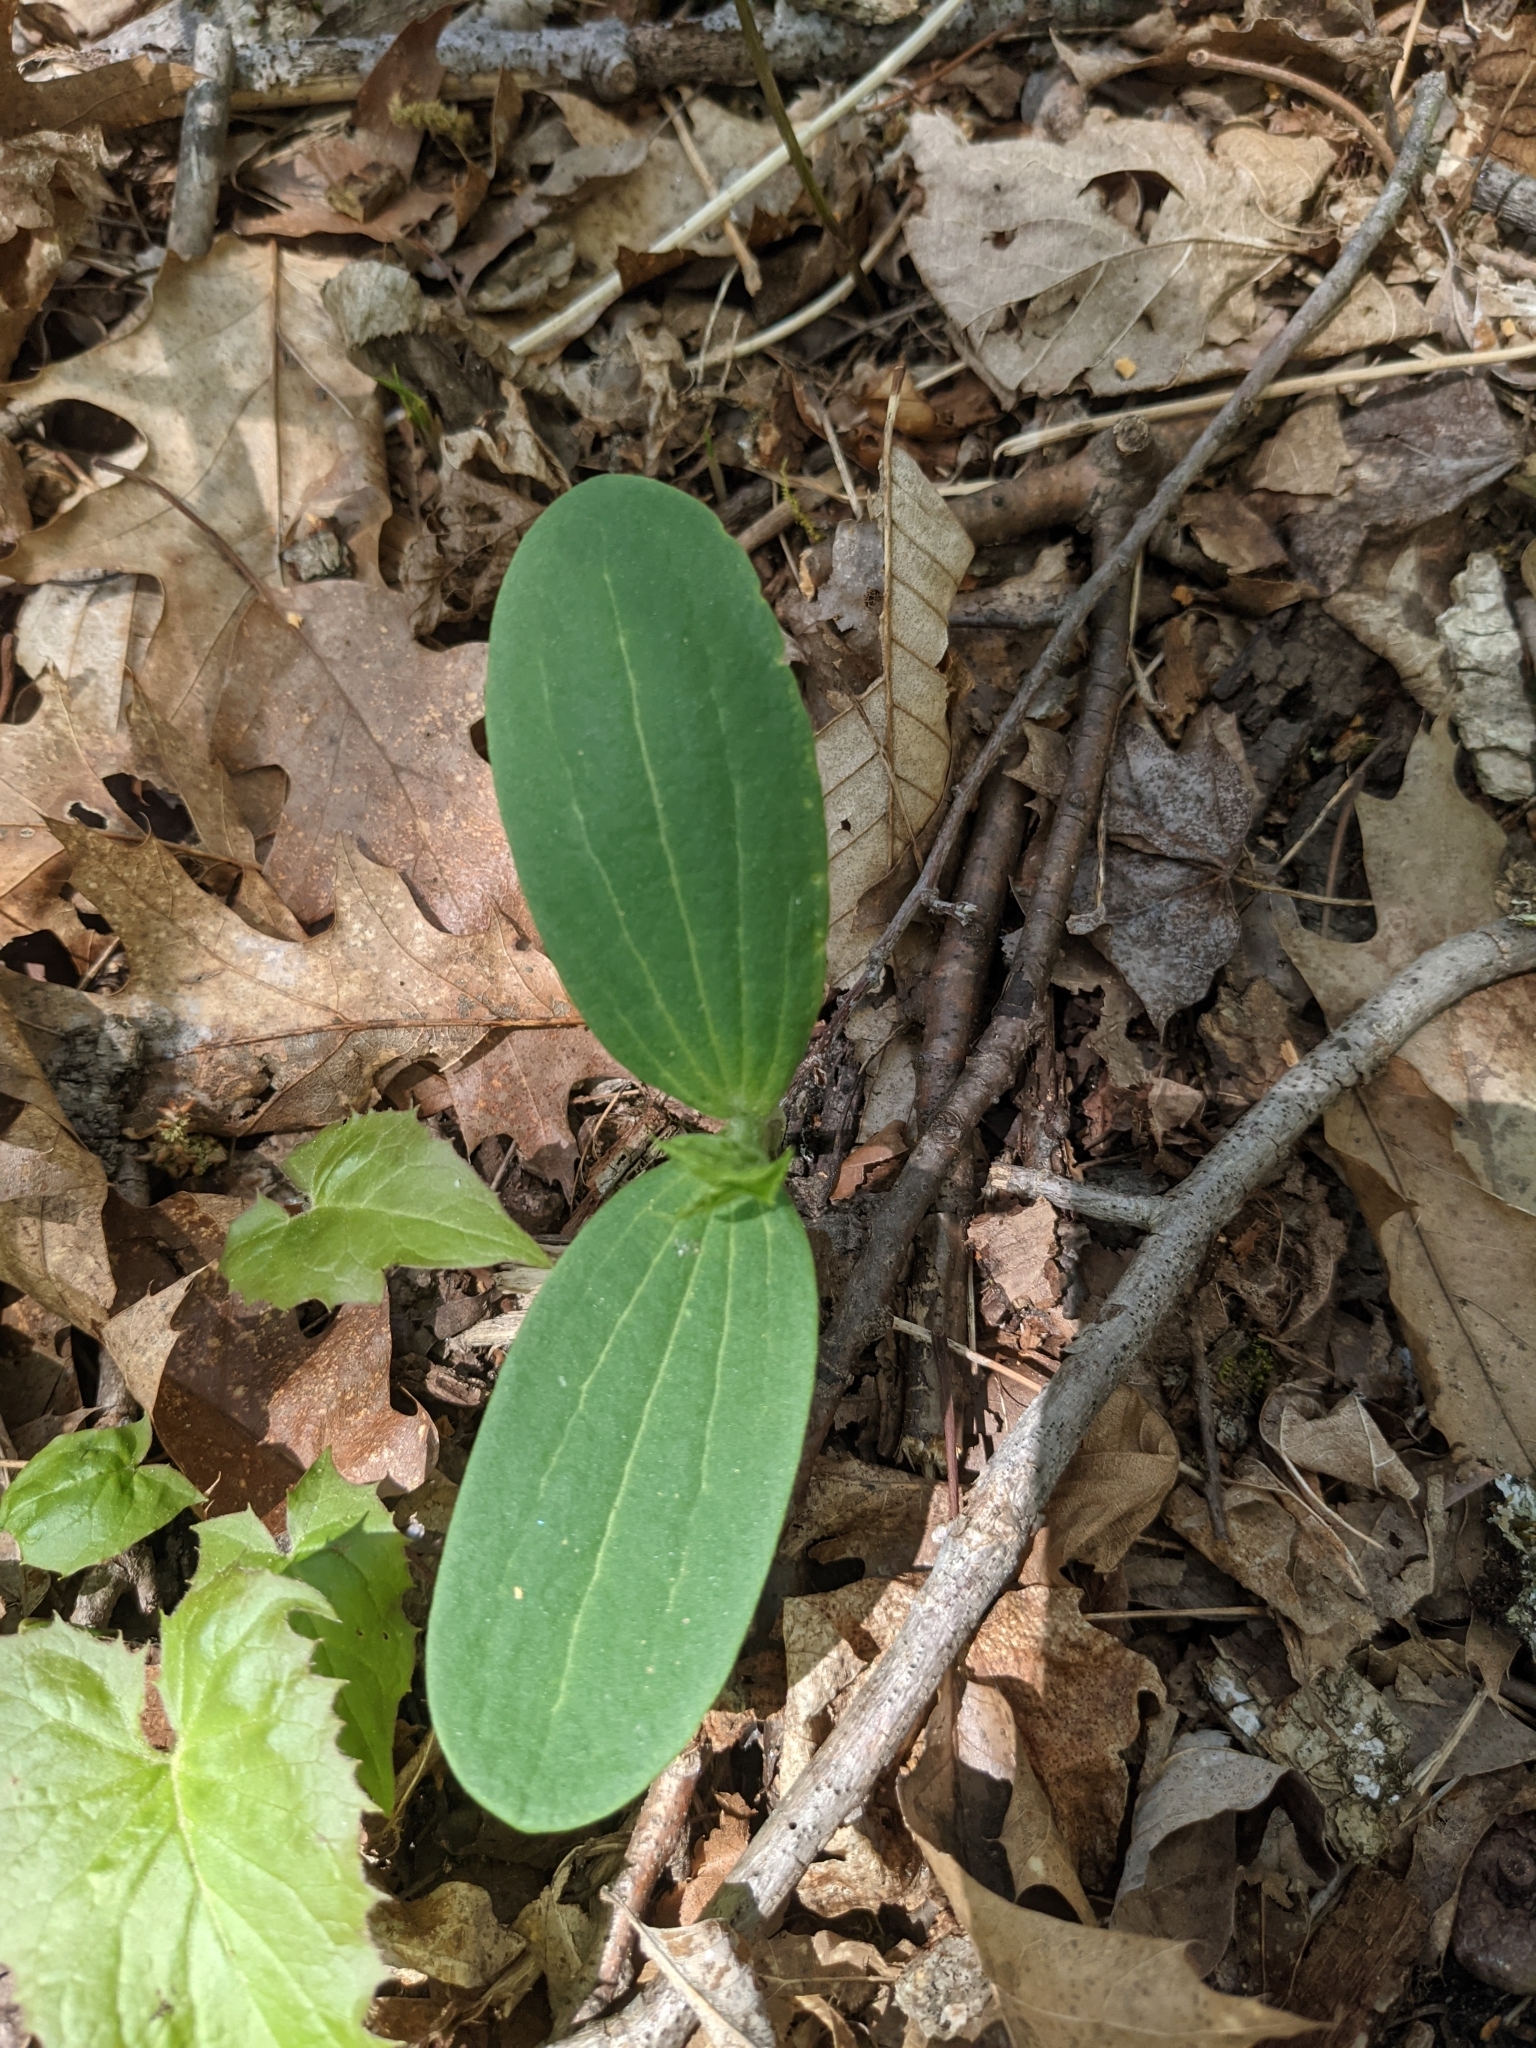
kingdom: Plantae
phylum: Tracheophyta
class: Magnoliopsida
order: Cucurbitales
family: Cucurbitaceae
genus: Echinocystis
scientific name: Echinocystis lobata
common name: Wild cucumber
